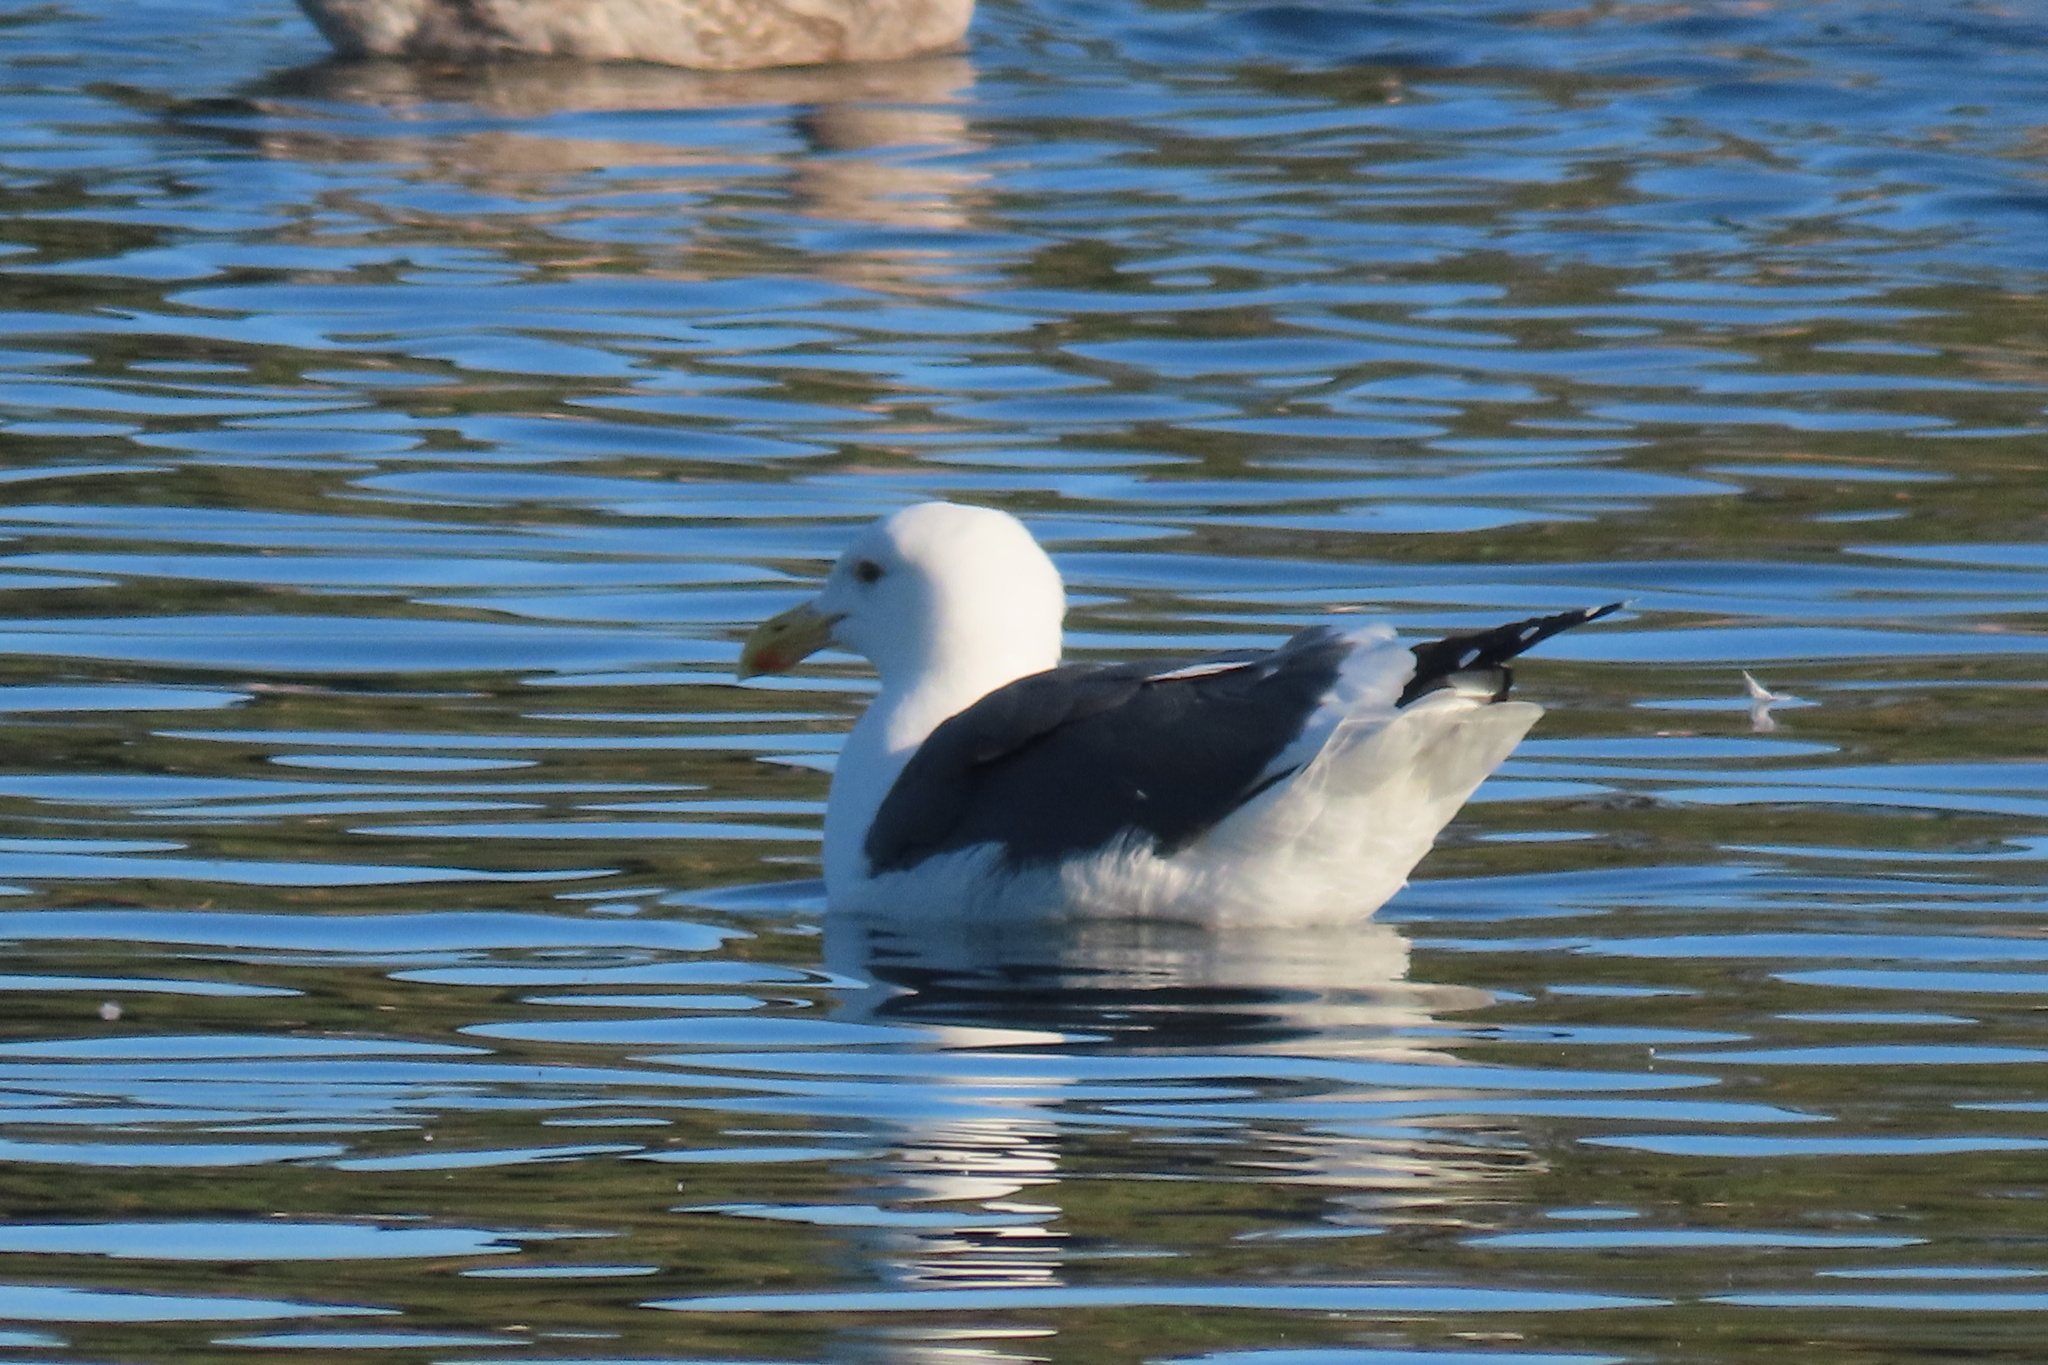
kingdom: Animalia
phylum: Chordata
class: Aves
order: Charadriiformes
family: Laridae
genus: Larus
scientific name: Larus occidentalis
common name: Western gull
